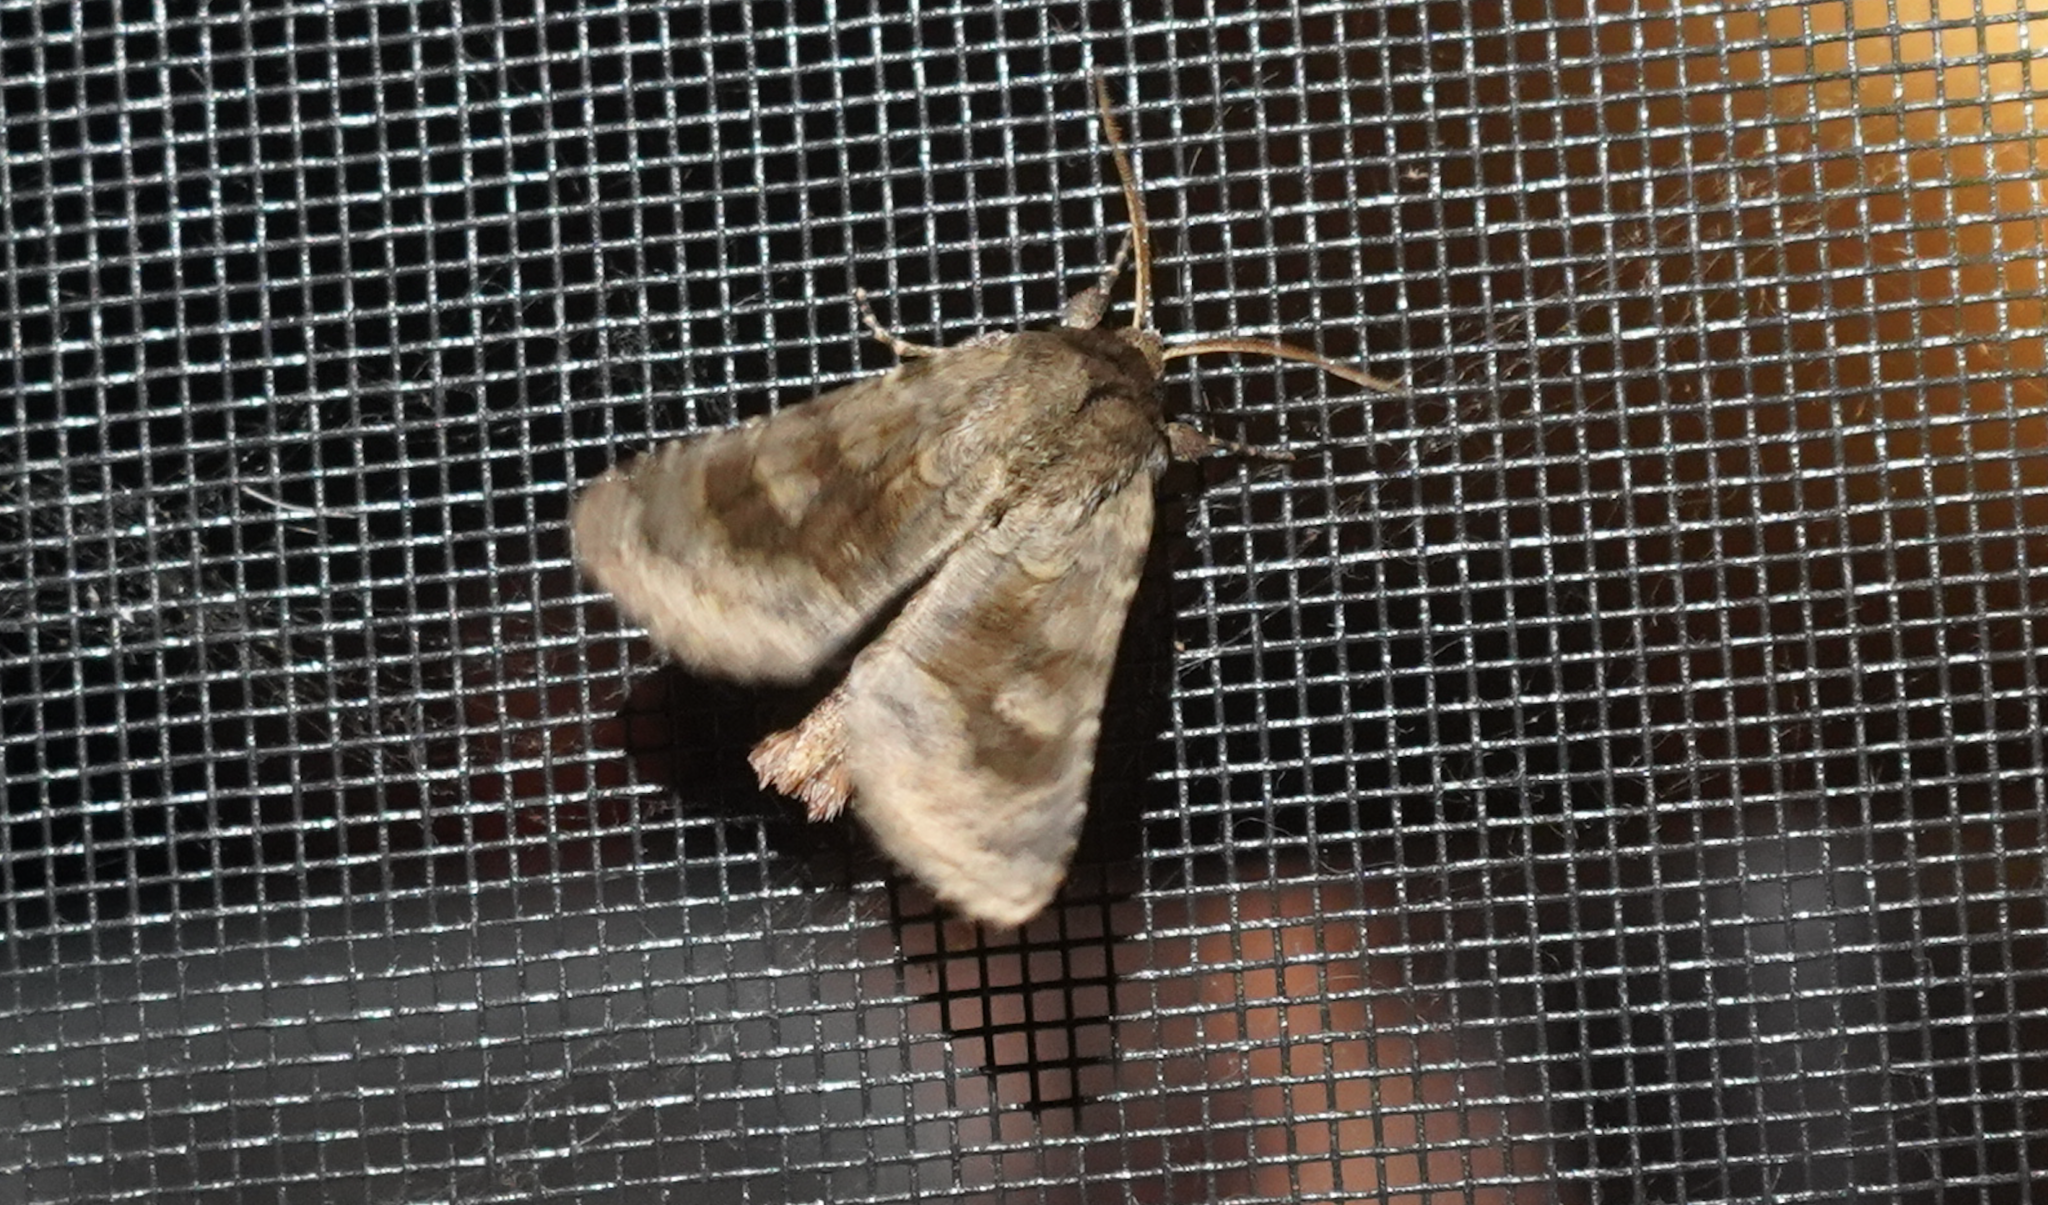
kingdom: Animalia
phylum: Arthropoda
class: Insecta
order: Lepidoptera
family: Noctuidae
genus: Nephelodes
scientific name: Nephelodes minians
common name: Bronzed cutworm
